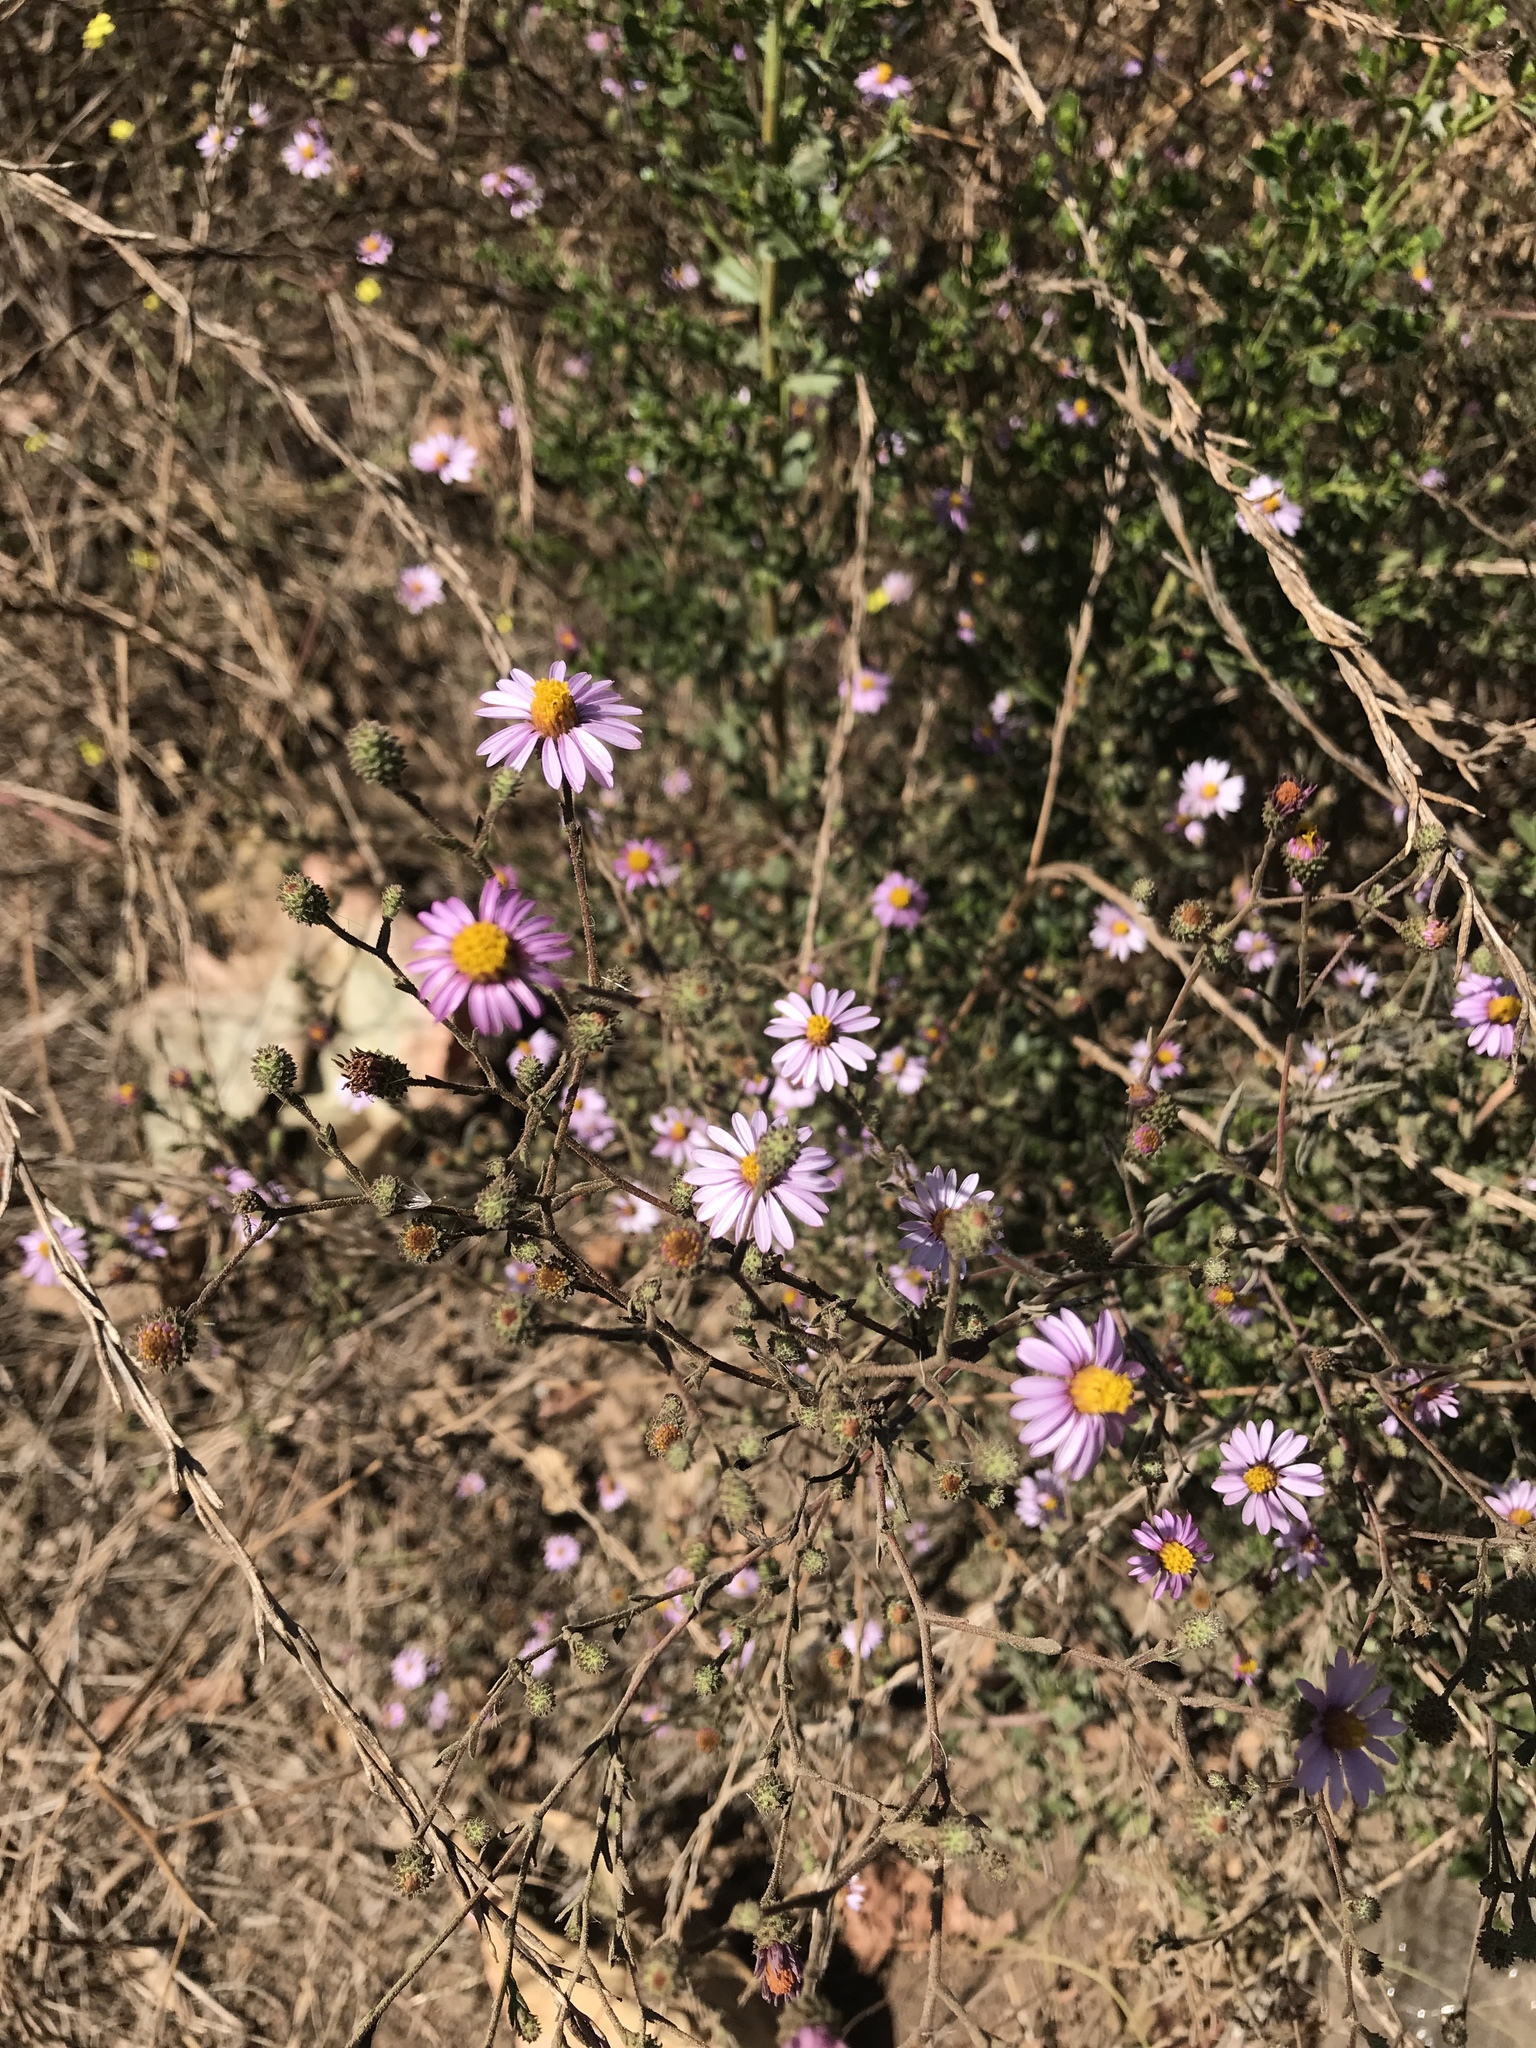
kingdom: Plantae
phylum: Tracheophyta
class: Magnoliopsida
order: Asterales
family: Asteraceae
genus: Corethrogyne
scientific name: Corethrogyne filaginifolia
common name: Sand-aster
